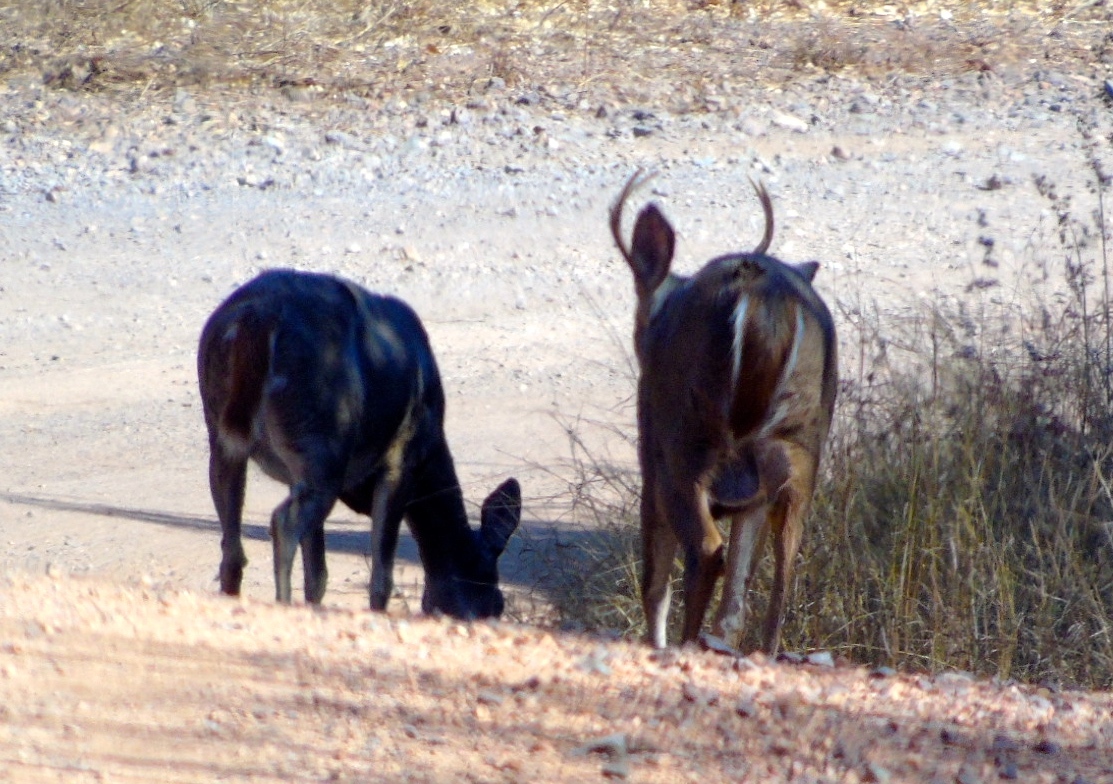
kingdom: Animalia
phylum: Chordata
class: Mammalia
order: Artiodactyla
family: Cervidae
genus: Odocoileus
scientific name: Odocoileus virginianus
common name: White-tailed deer
